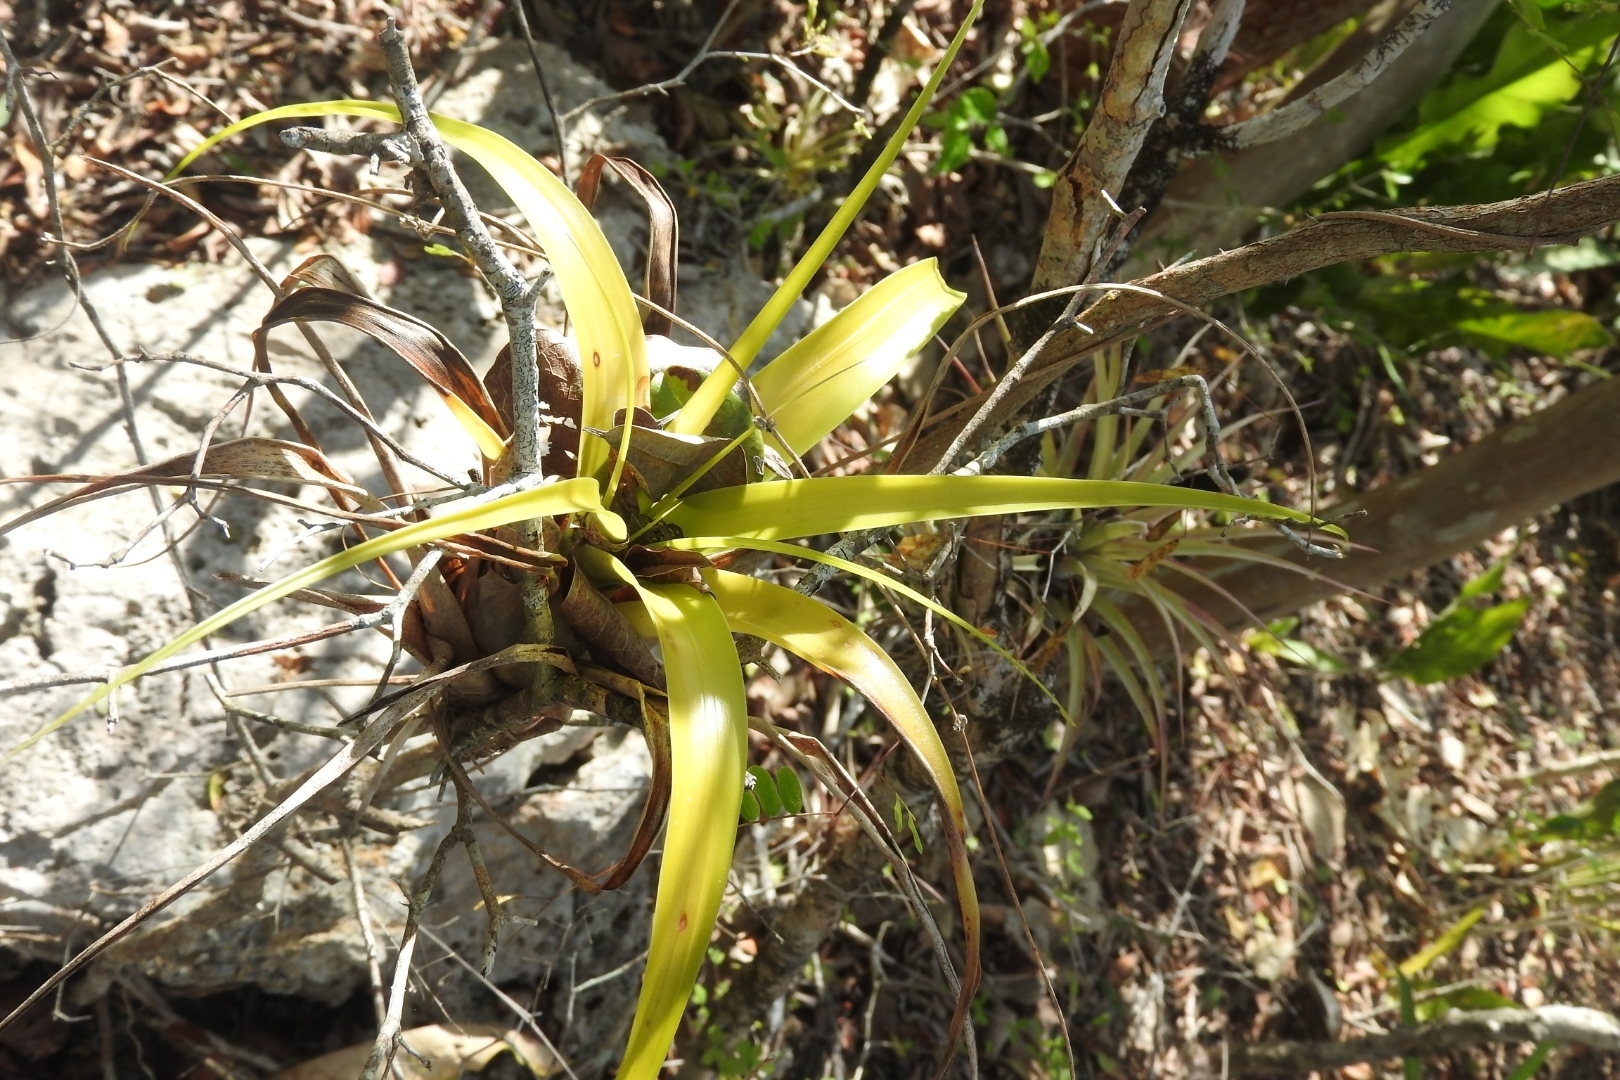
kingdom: Plantae
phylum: Tracheophyta
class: Liliopsida
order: Poales
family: Bromeliaceae
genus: Tillandsia
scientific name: Tillandsia fasciculata
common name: Giant airplant
